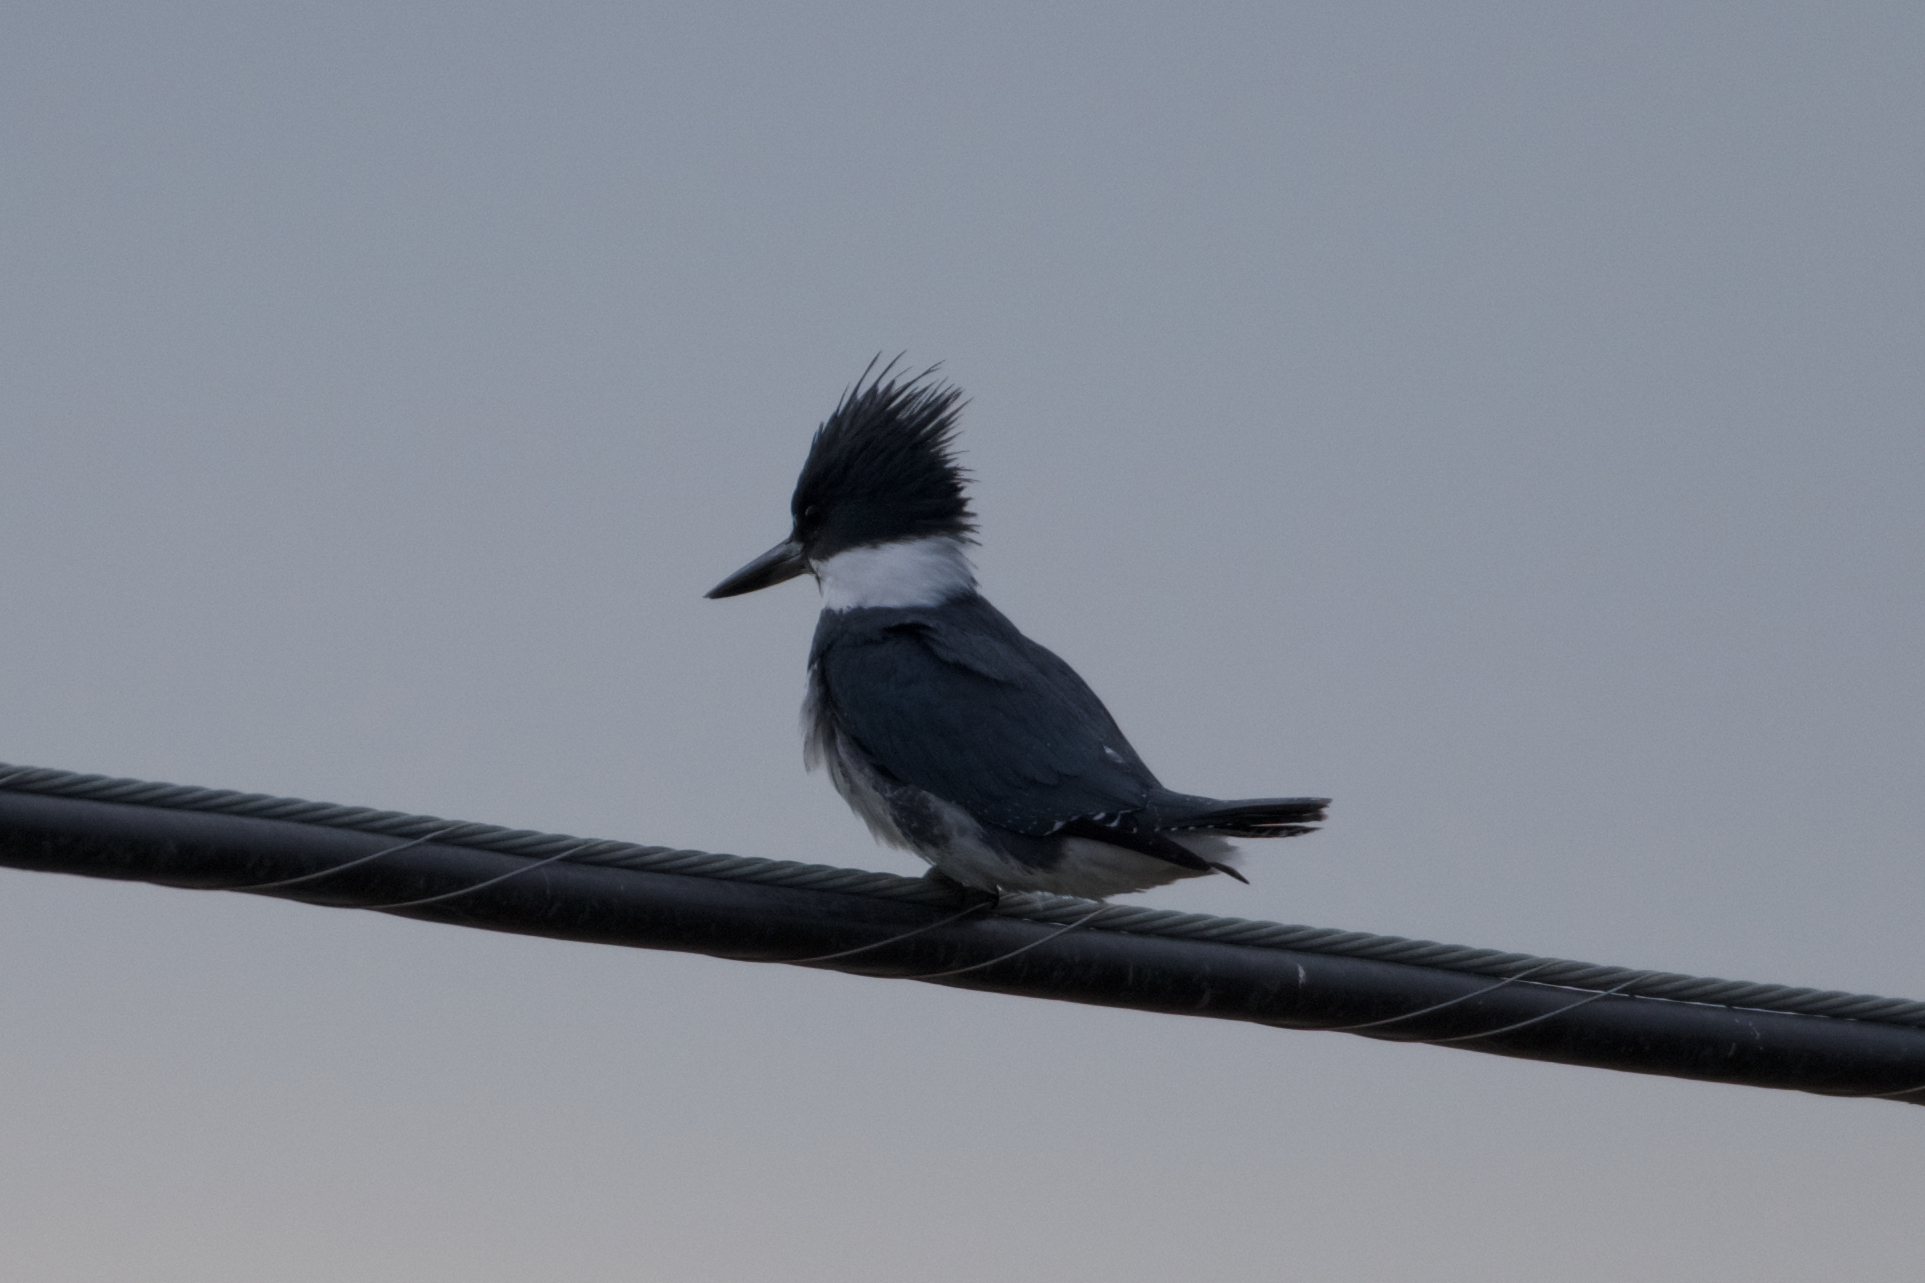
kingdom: Animalia
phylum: Chordata
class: Aves
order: Coraciiformes
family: Alcedinidae
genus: Megaceryle
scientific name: Megaceryle alcyon
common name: Belted kingfisher
